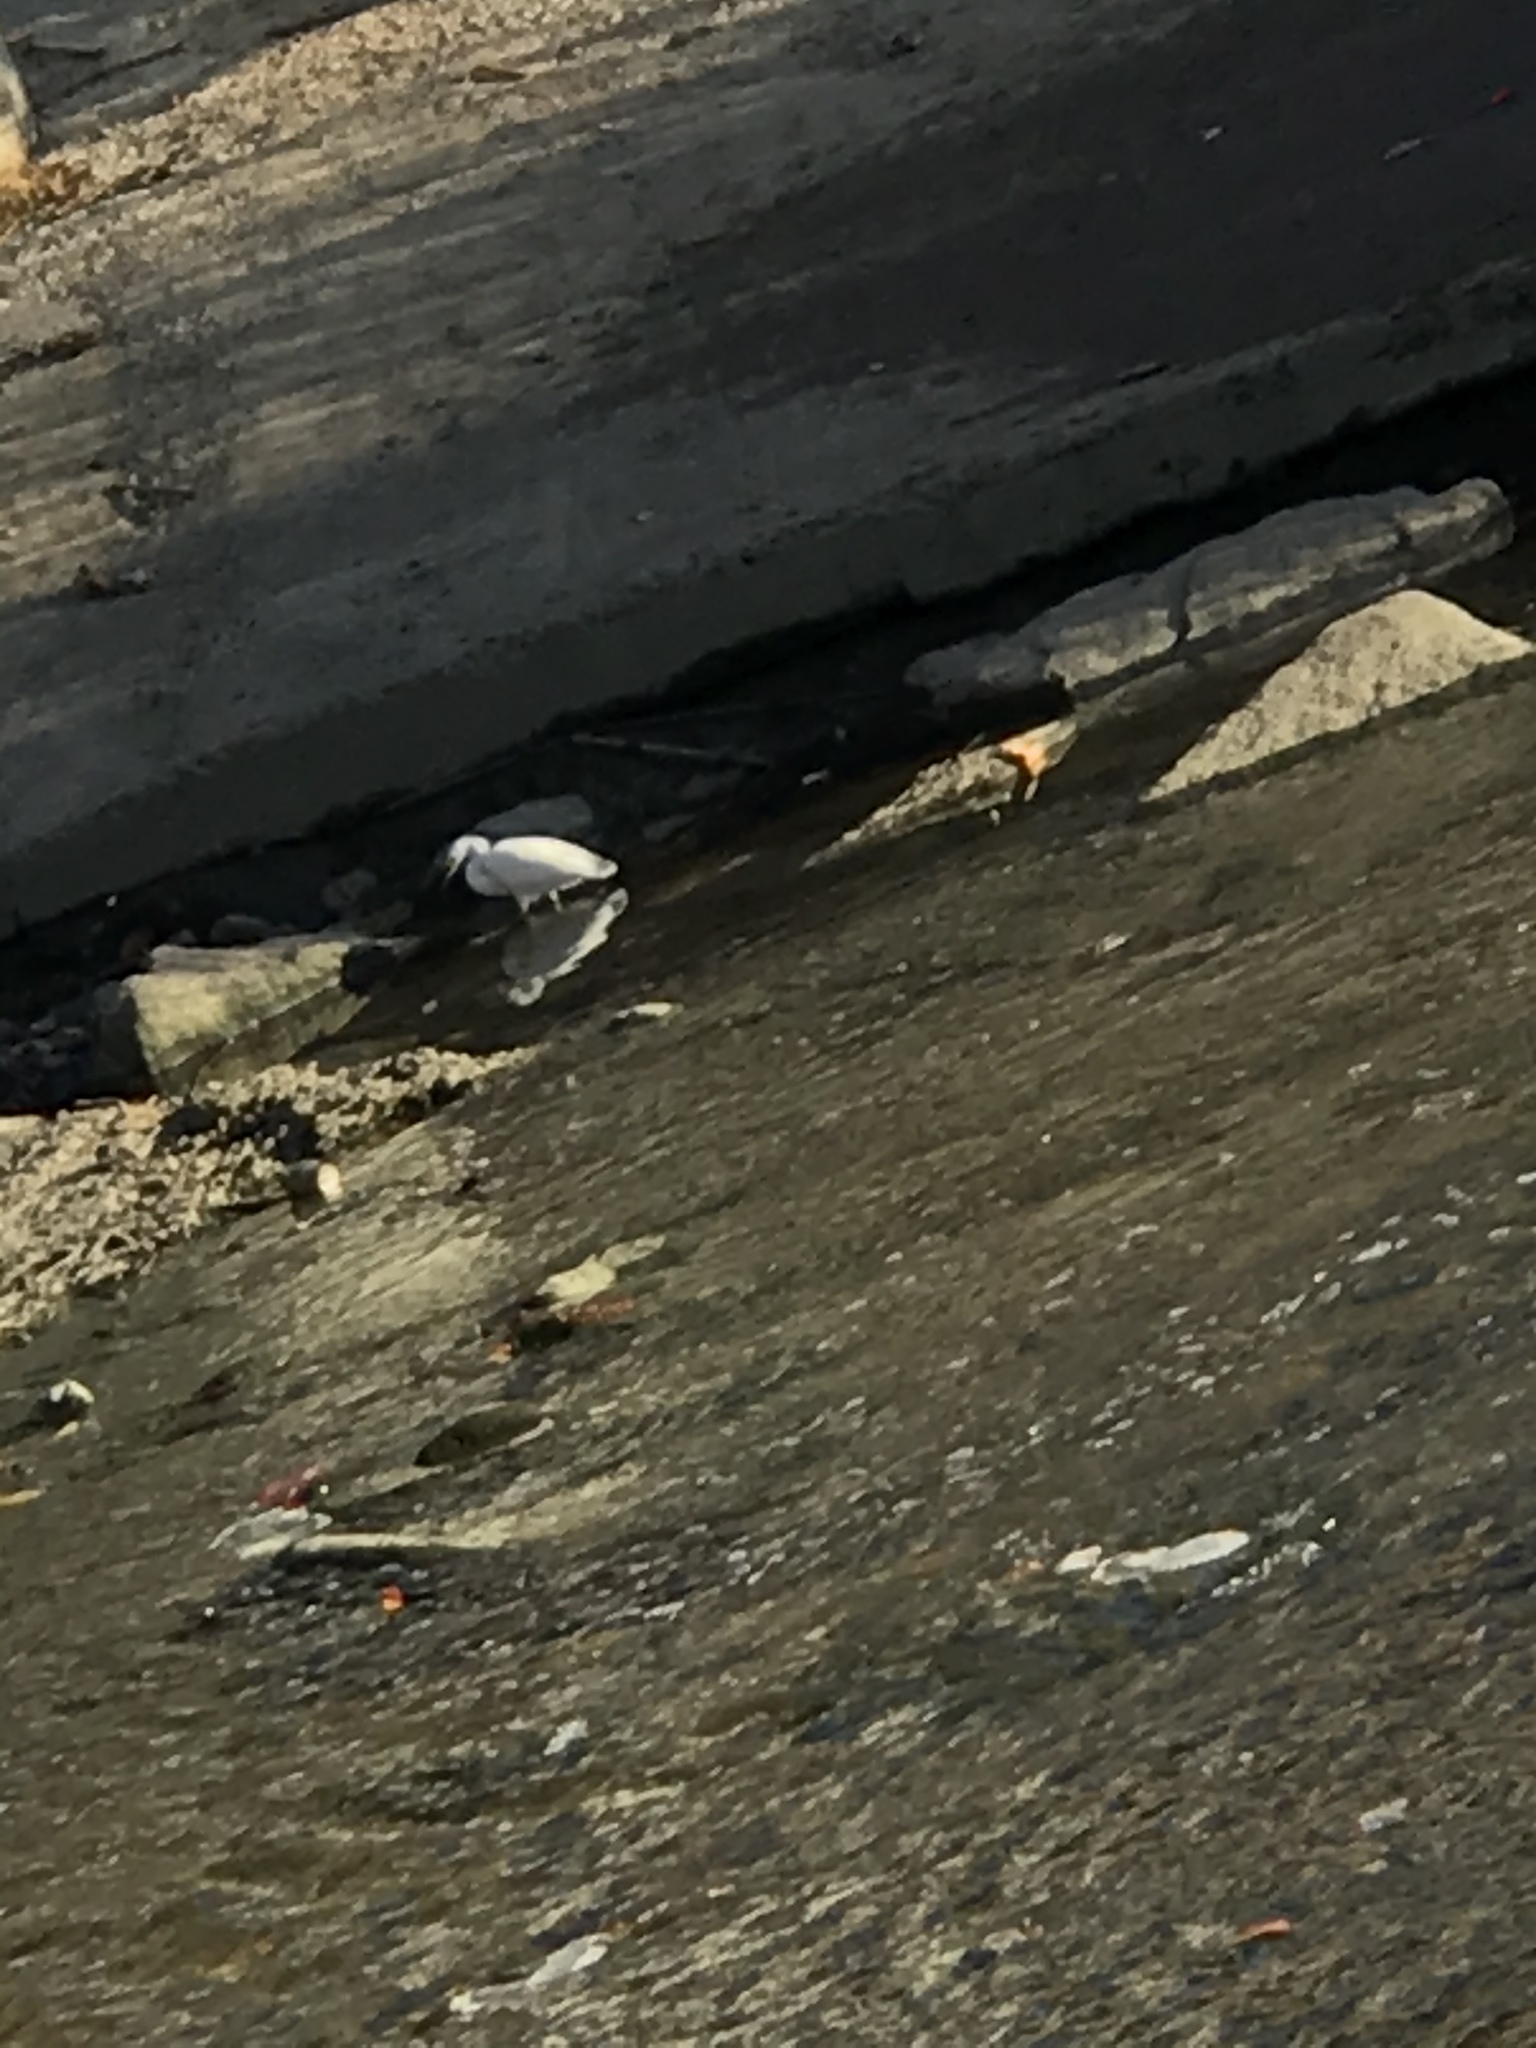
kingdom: Animalia
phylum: Chordata
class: Aves
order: Pelecaniformes
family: Ardeidae
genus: Egretta
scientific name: Egretta thula
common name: Snowy egret
